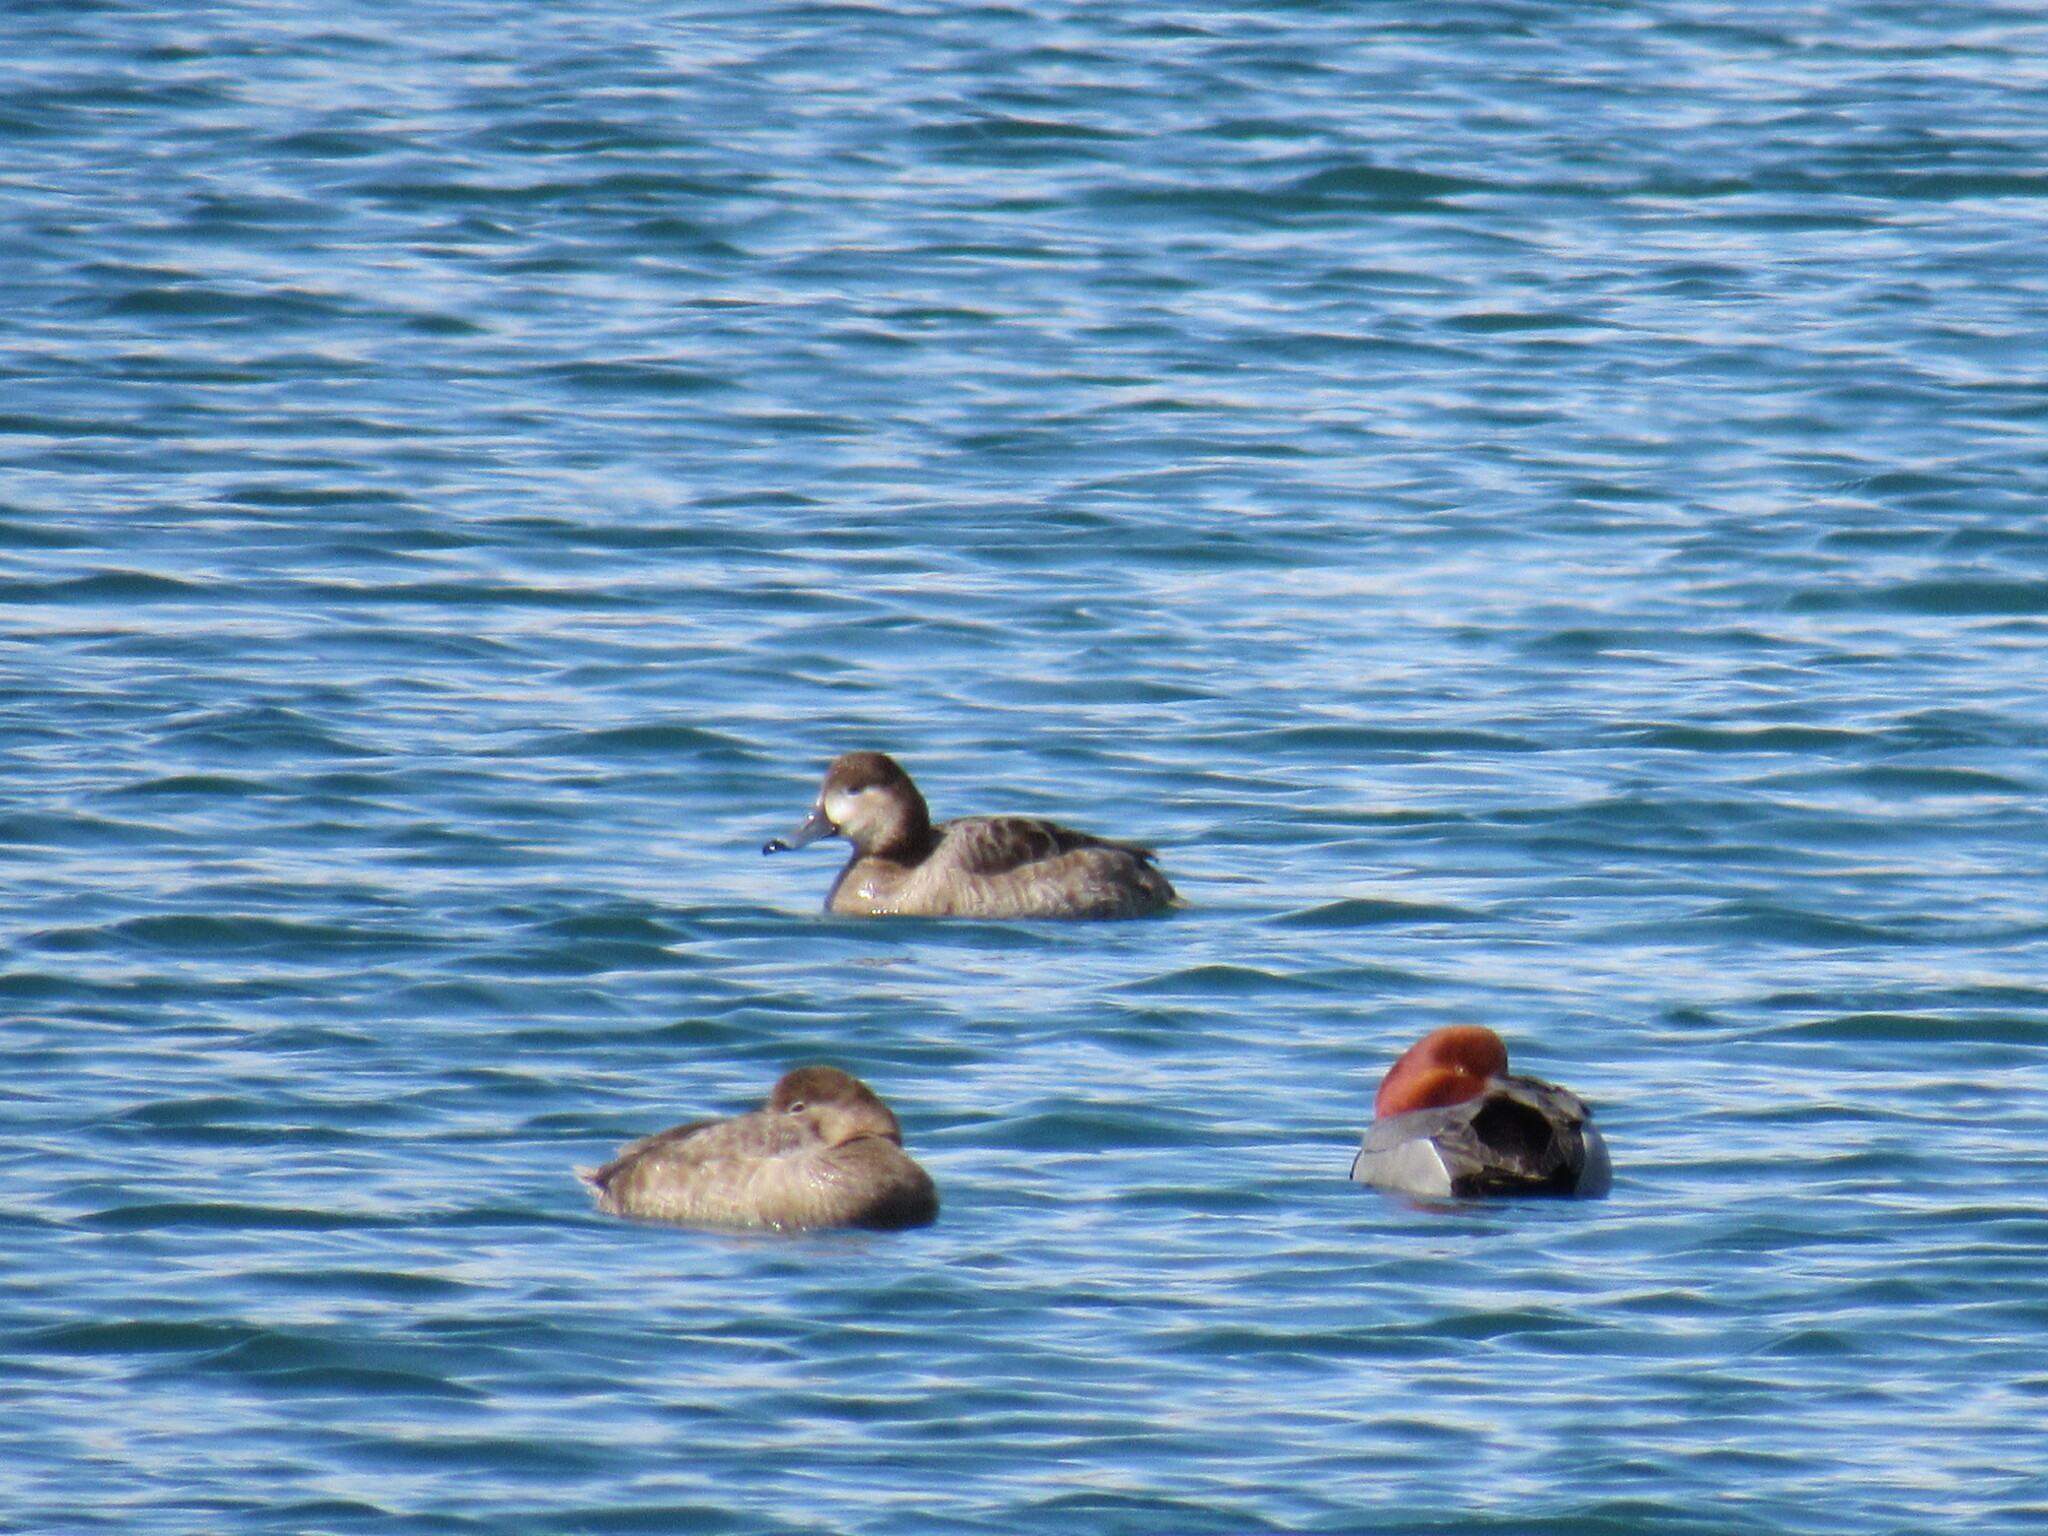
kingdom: Animalia
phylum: Chordata
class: Aves
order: Anseriformes
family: Anatidae
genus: Aythya
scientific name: Aythya americana
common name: Redhead
